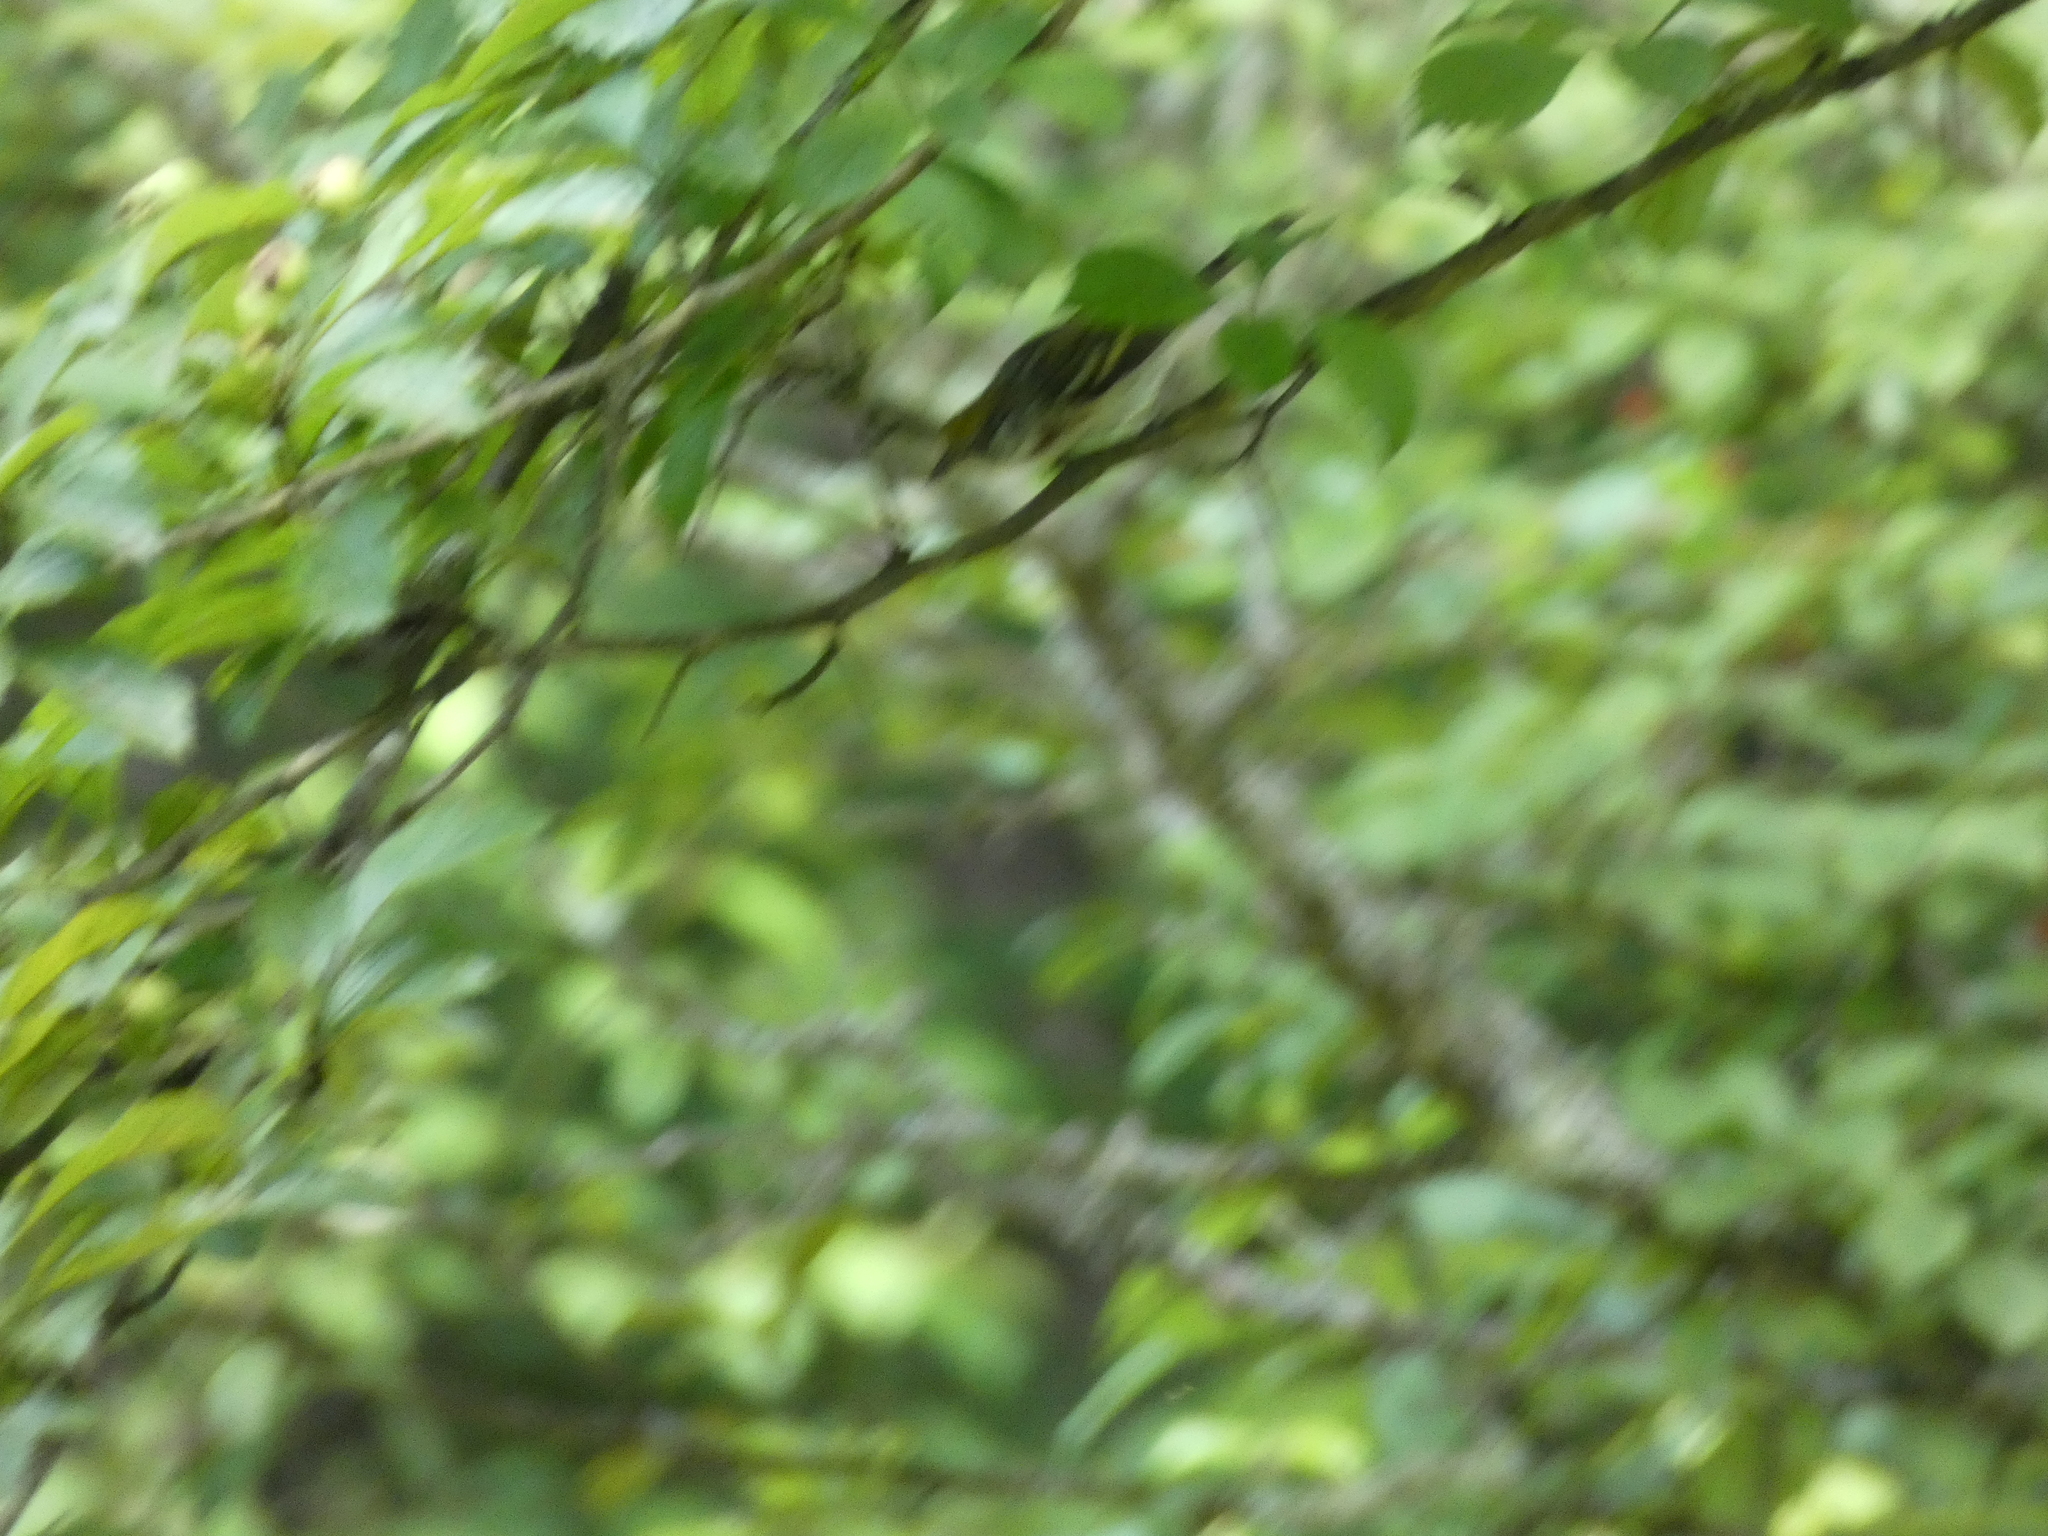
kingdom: Animalia
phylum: Chordata
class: Aves
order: Passeriformes
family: Parulidae
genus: Setophaga
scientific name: Setophaga pensylvanica
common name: Chestnut-sided warbler
